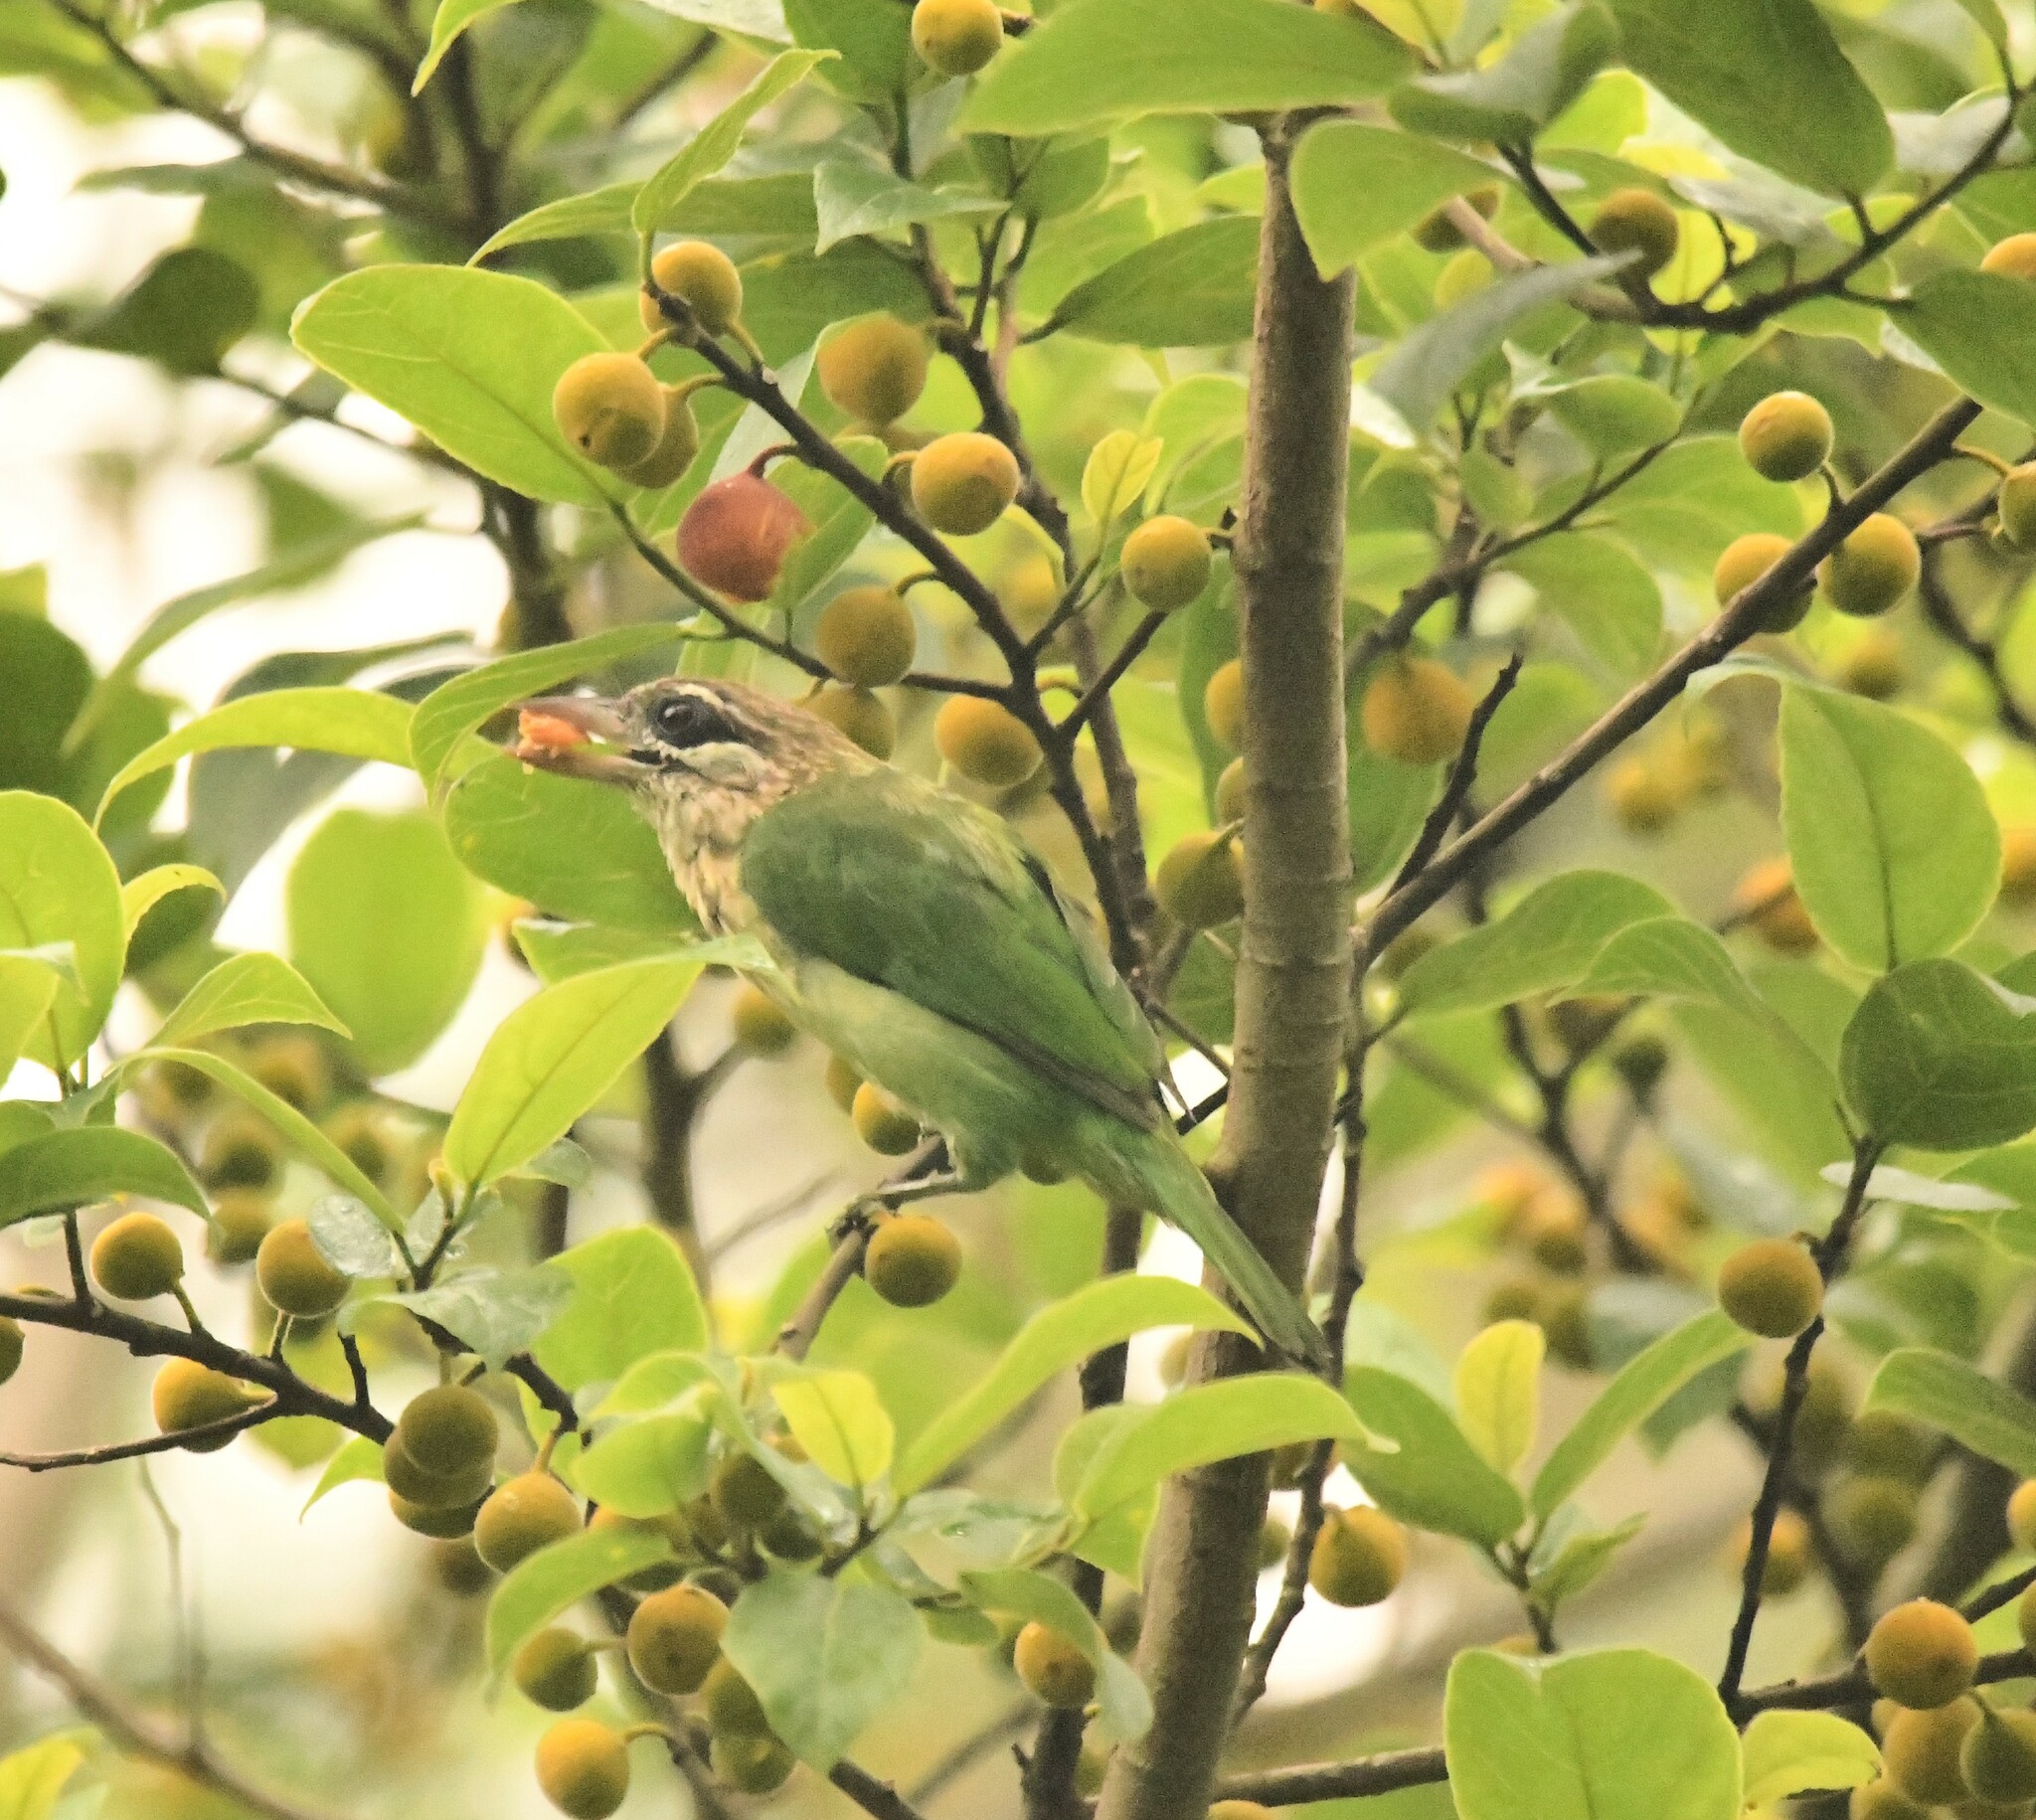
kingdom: Animalia
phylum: Chordata
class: Aves
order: Piciformes
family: Megalaimidae
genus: Psilopogon
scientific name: Psilopogon viridis
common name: White-cheeked barbet
